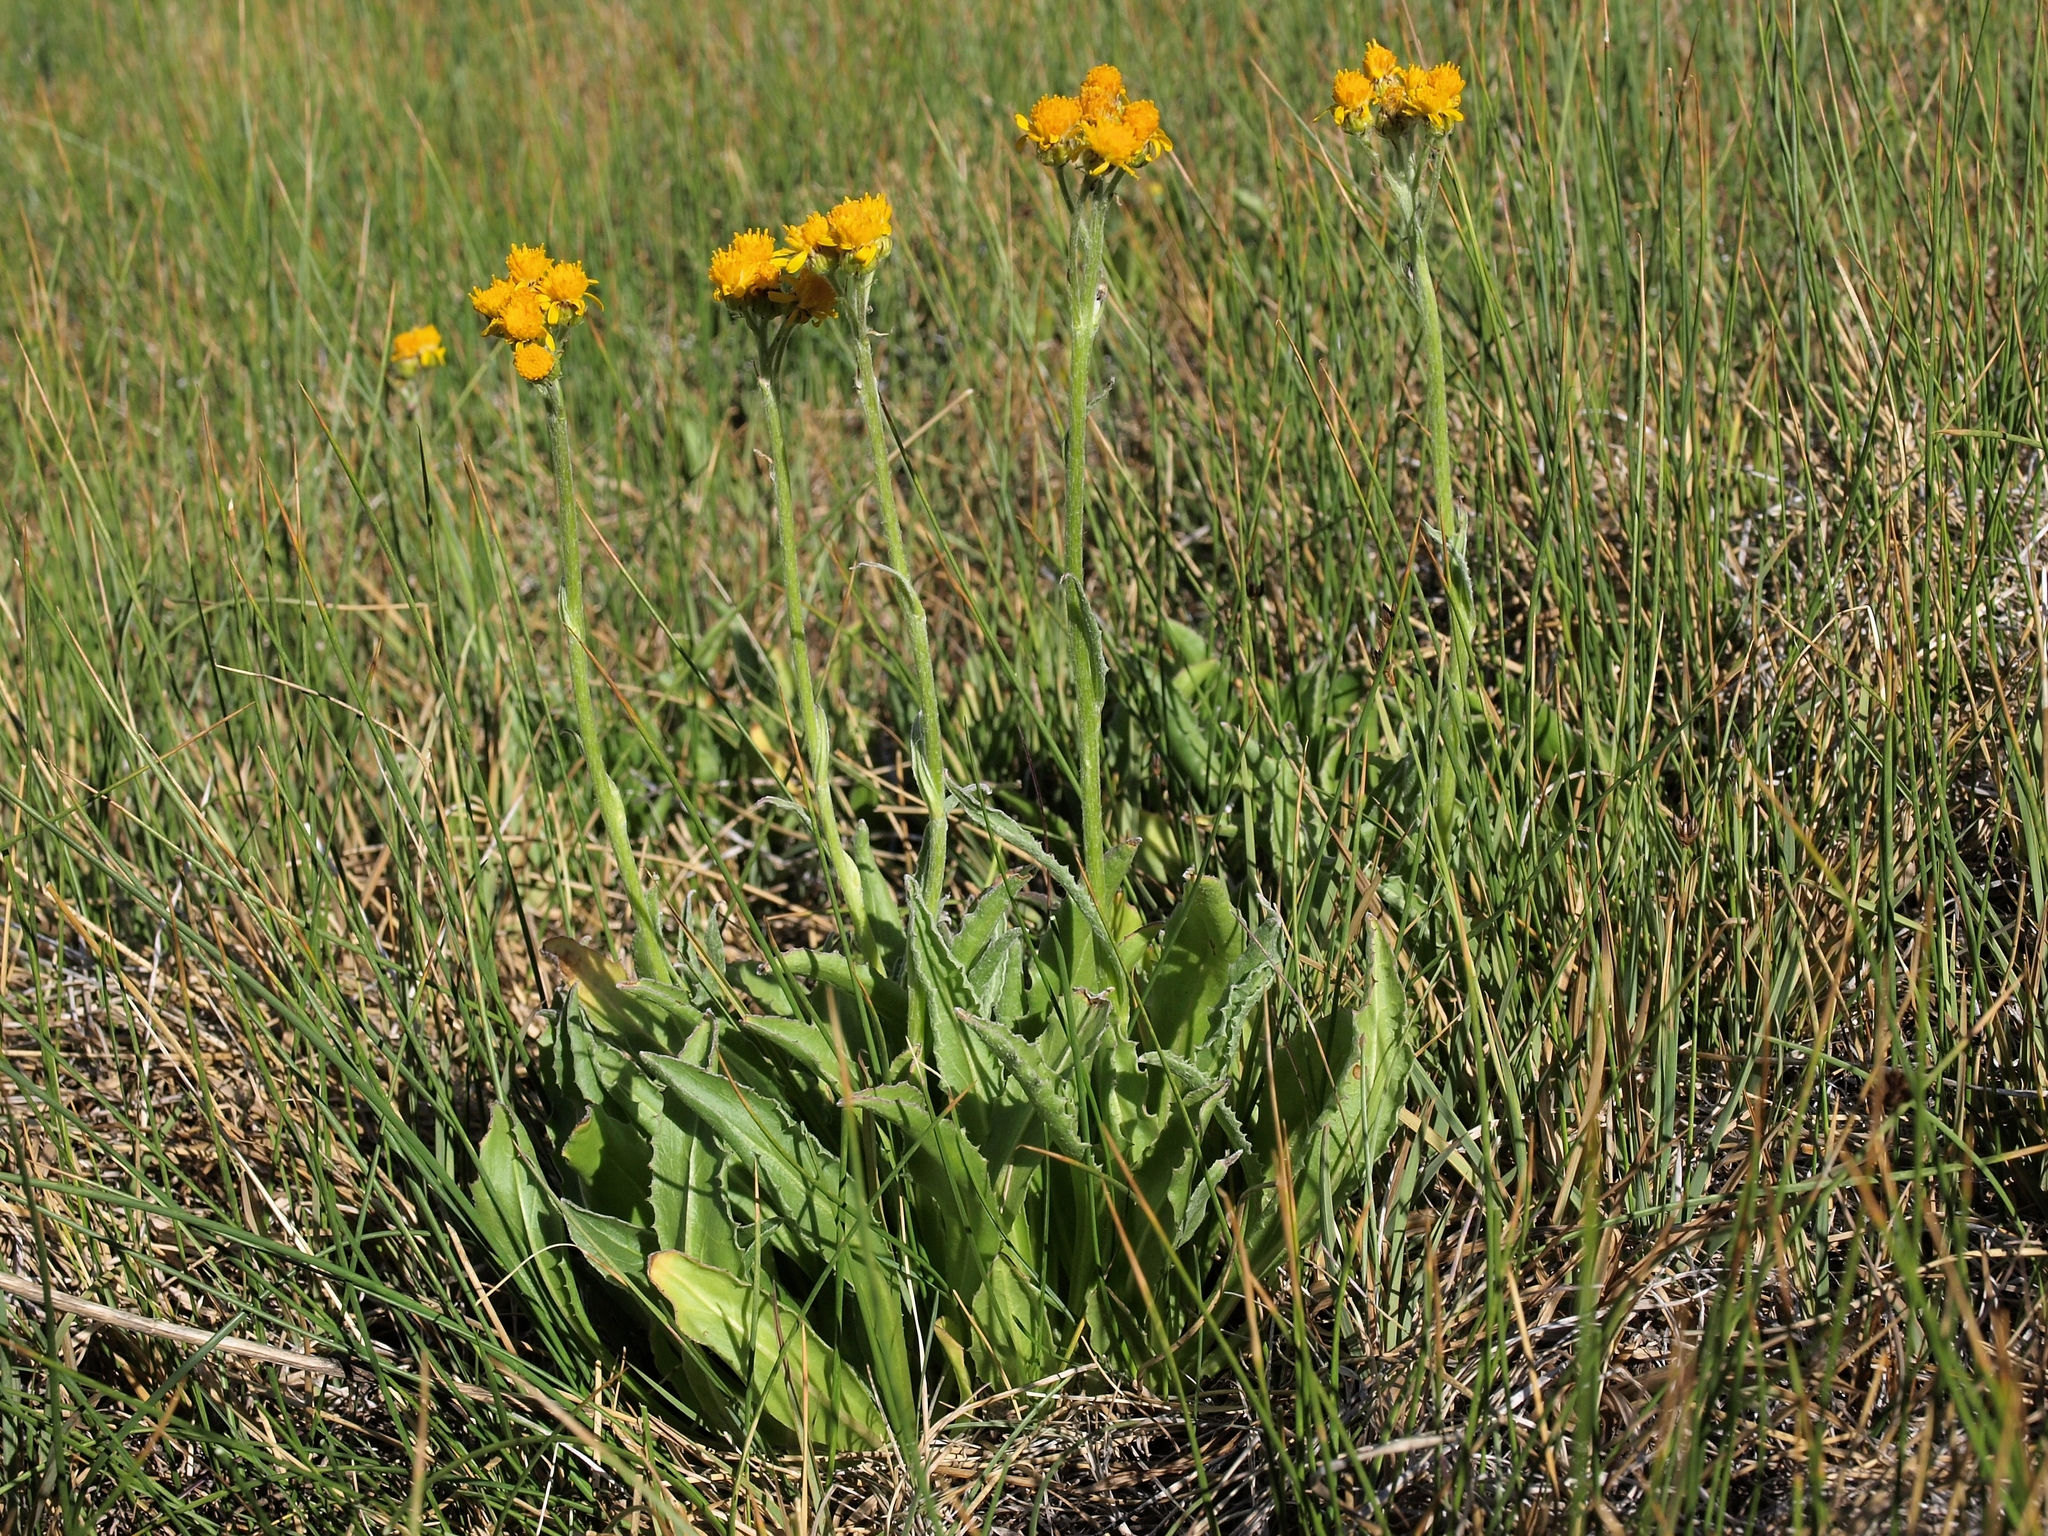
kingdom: Plantae
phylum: Tracheophyta
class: Magnoliopsida
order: Asterales
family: Asteraceae
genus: Senecio
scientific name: Senecio scorzonella
